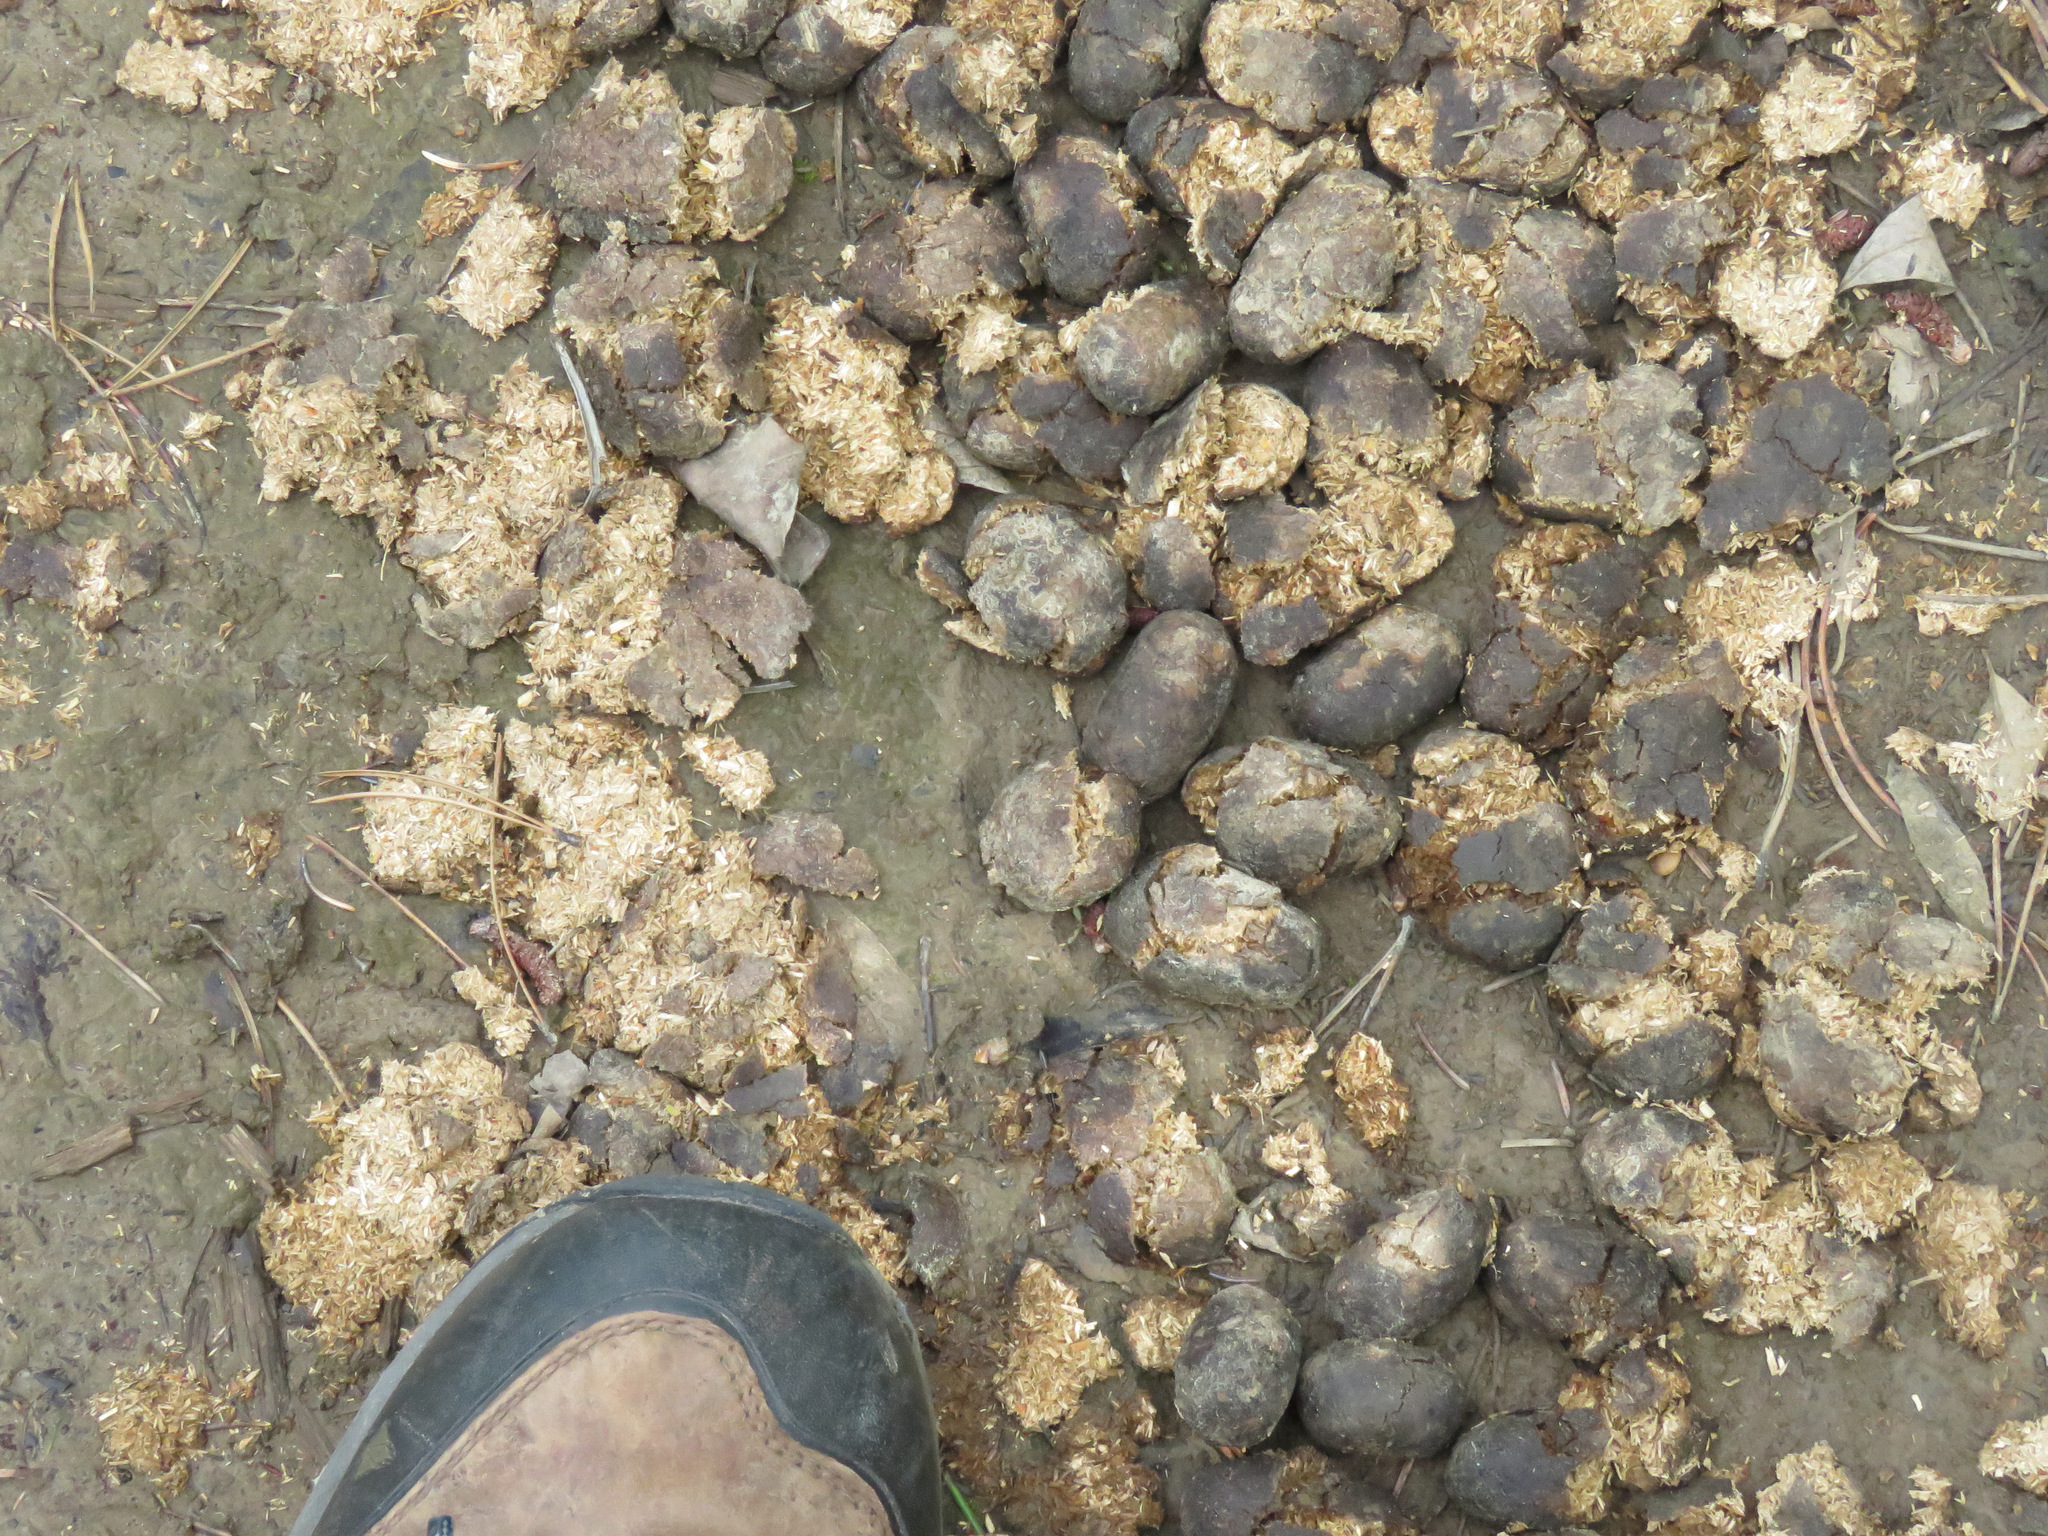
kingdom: Animalia
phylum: Chordata
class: Mammalia
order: Artiodactyla
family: Cervidae
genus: Alces
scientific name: Alces alces
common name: Moose
